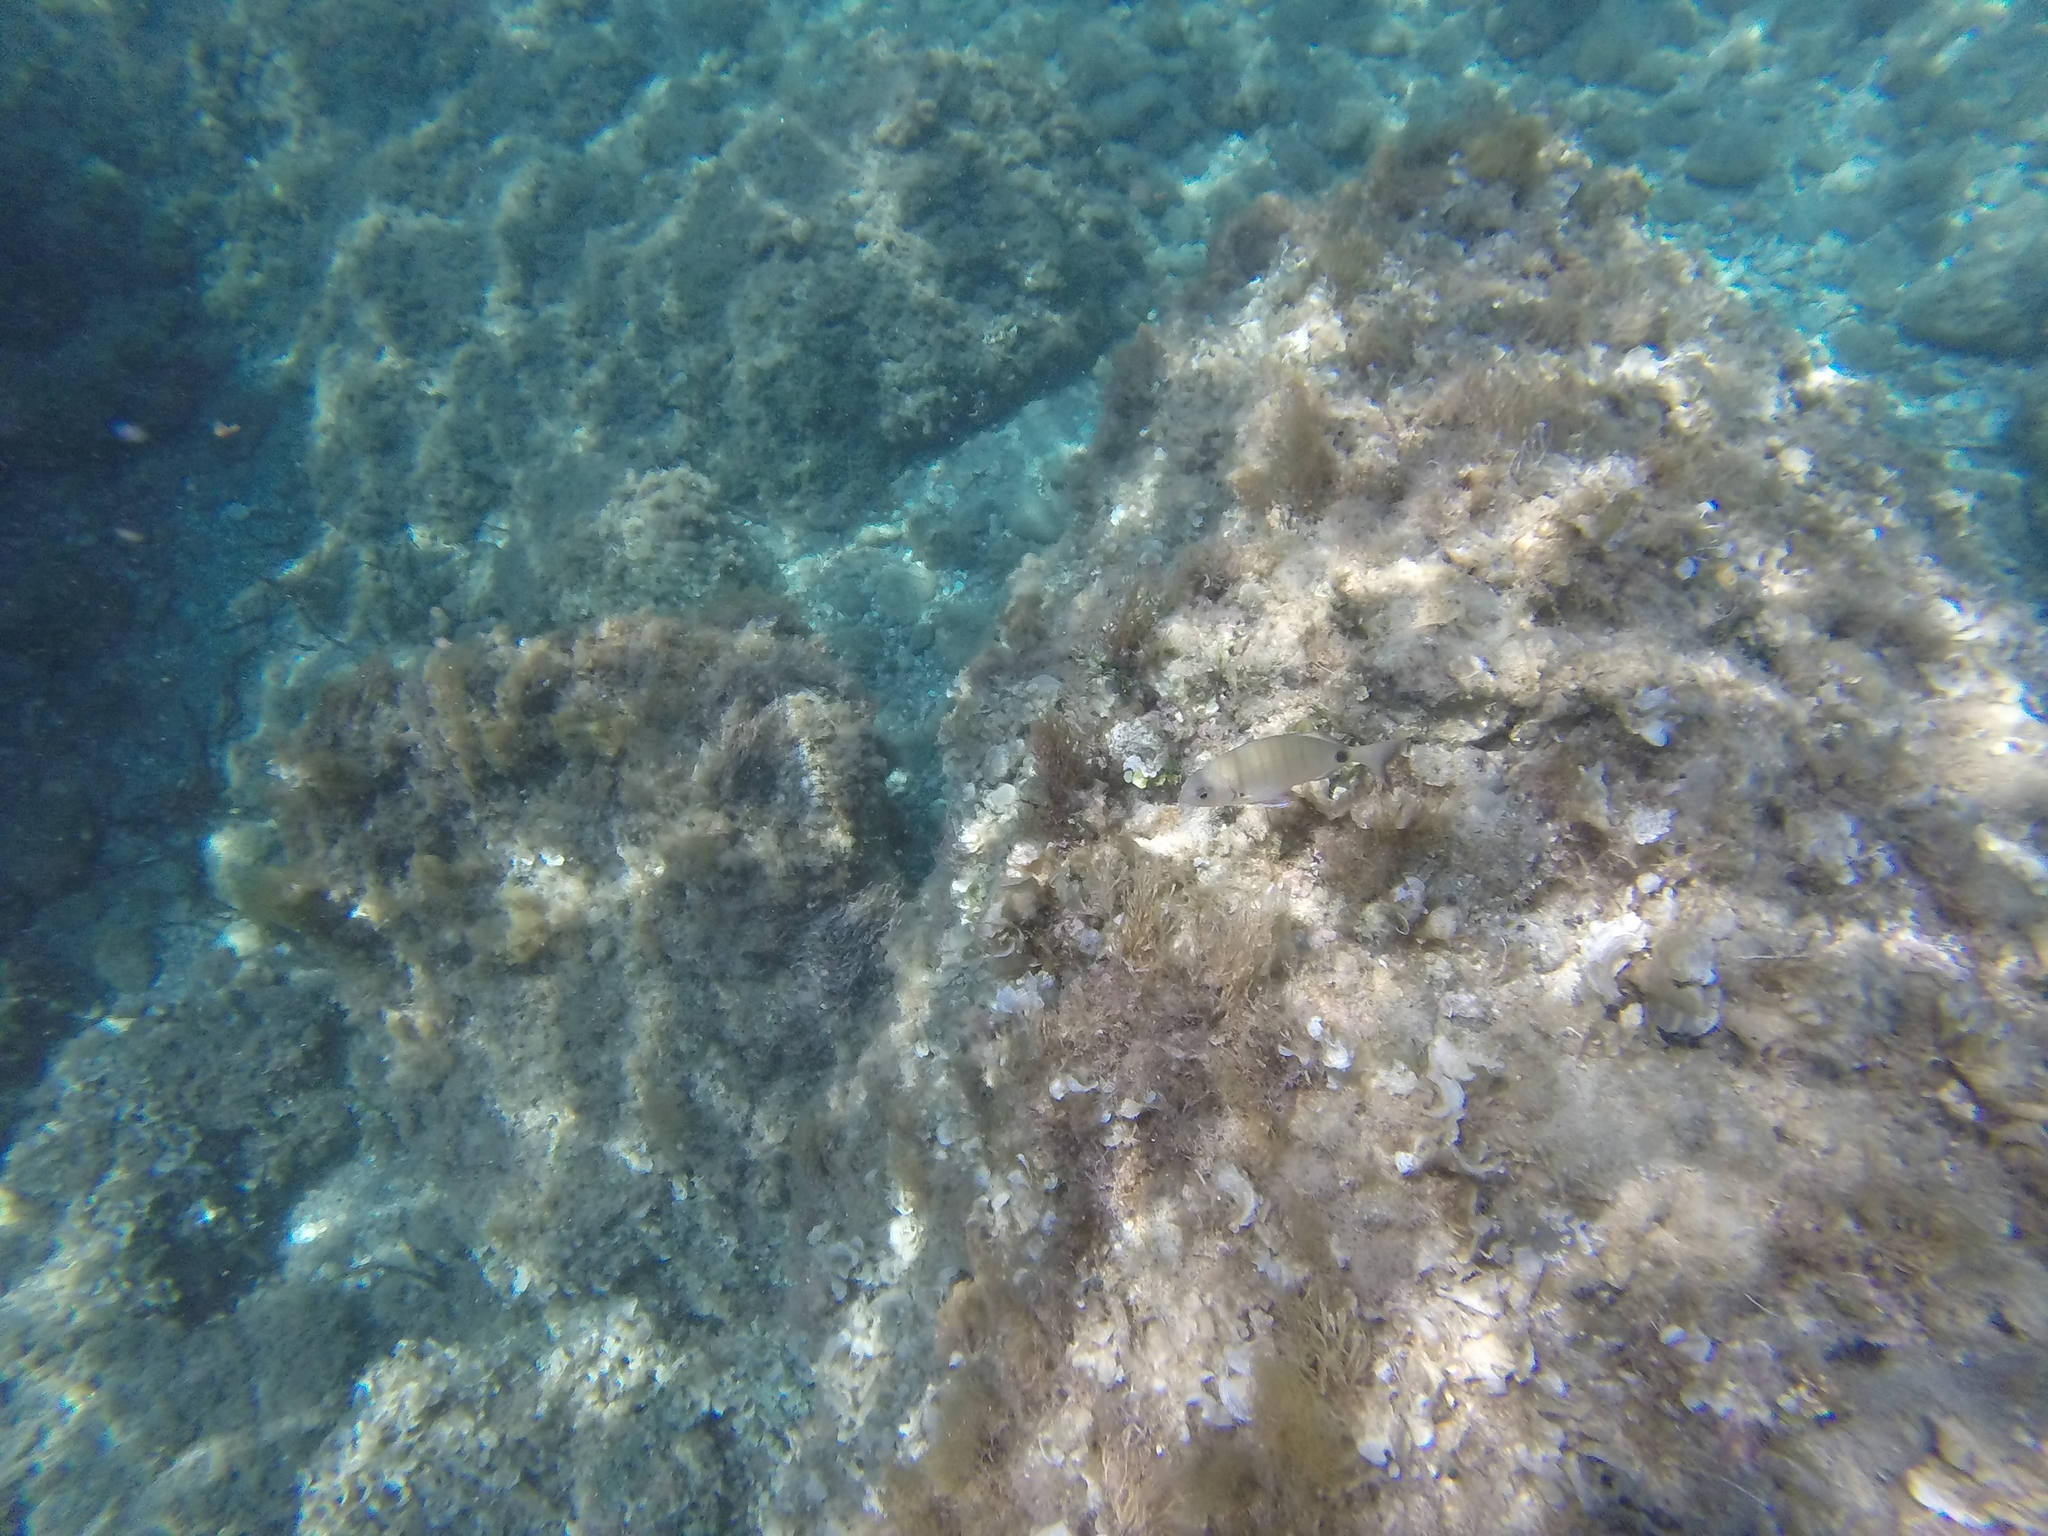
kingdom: Animalia
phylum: Chordata
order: Perciformes
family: Sparidae
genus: Diplodus
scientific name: Diplodus sargus
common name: White seabream
